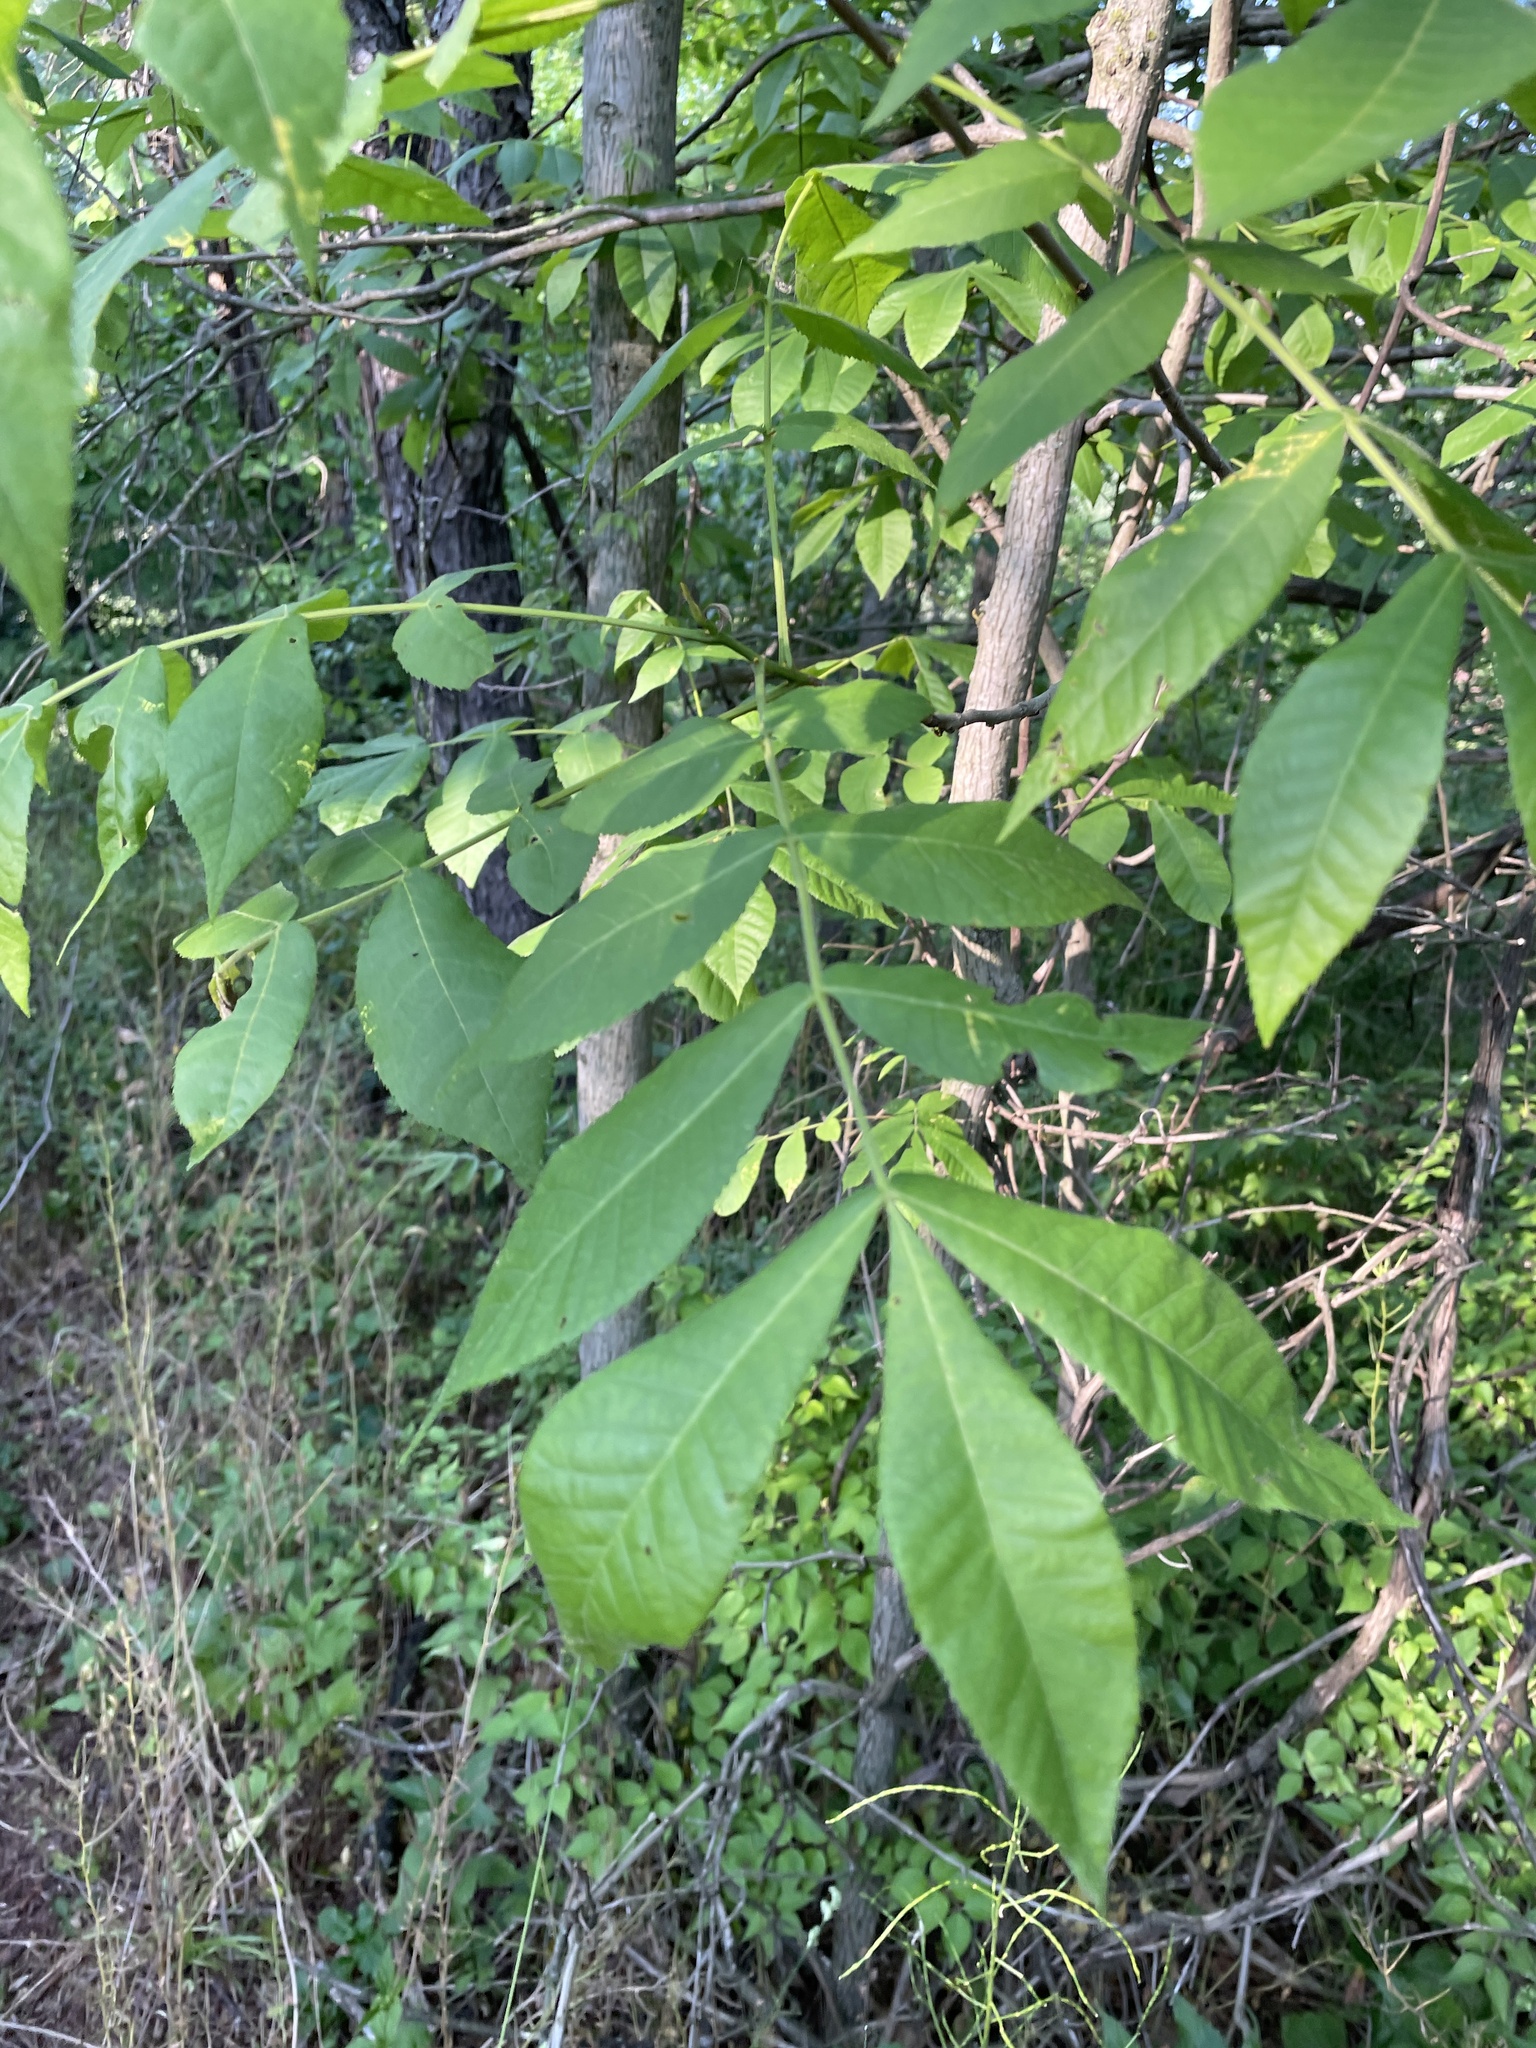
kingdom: Plantae
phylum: Tracheophyta
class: Magnoliopsida
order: Fagales
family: Juglandaceae
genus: Carya
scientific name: Carya cordiformis
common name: Bitternut hickory
